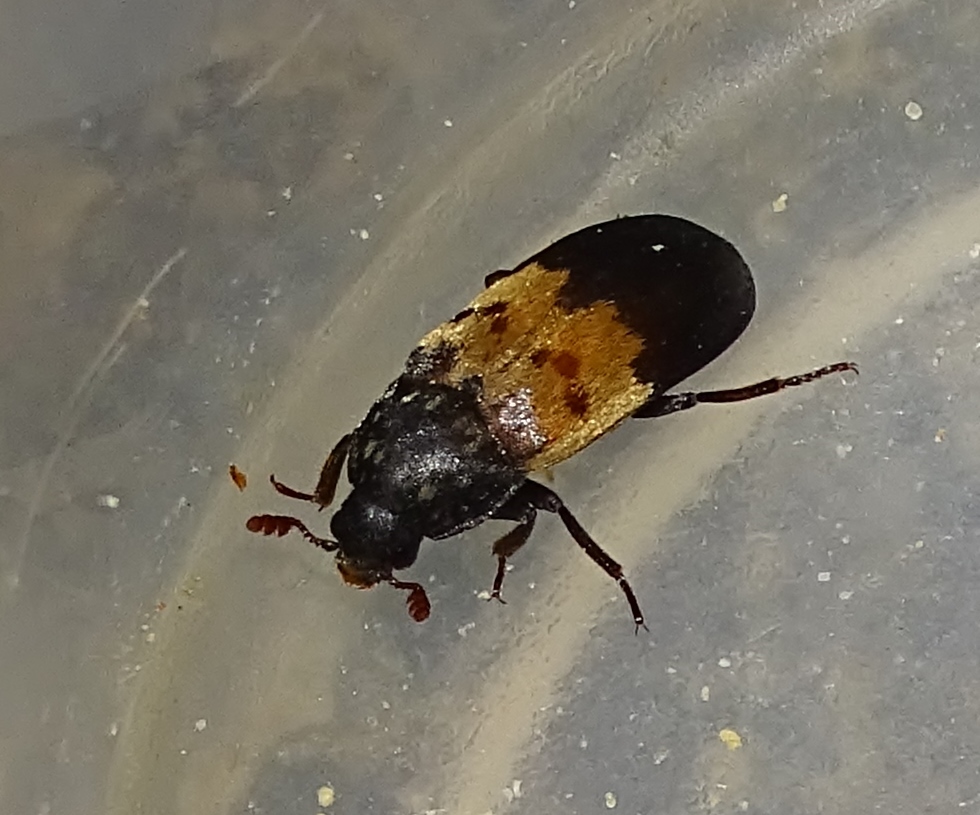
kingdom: Animalia
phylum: Arthropoda
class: Insecta
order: Coleoptera
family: Dermestidae
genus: Dermestes
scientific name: Dermestes lardarius
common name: Larder beetle
